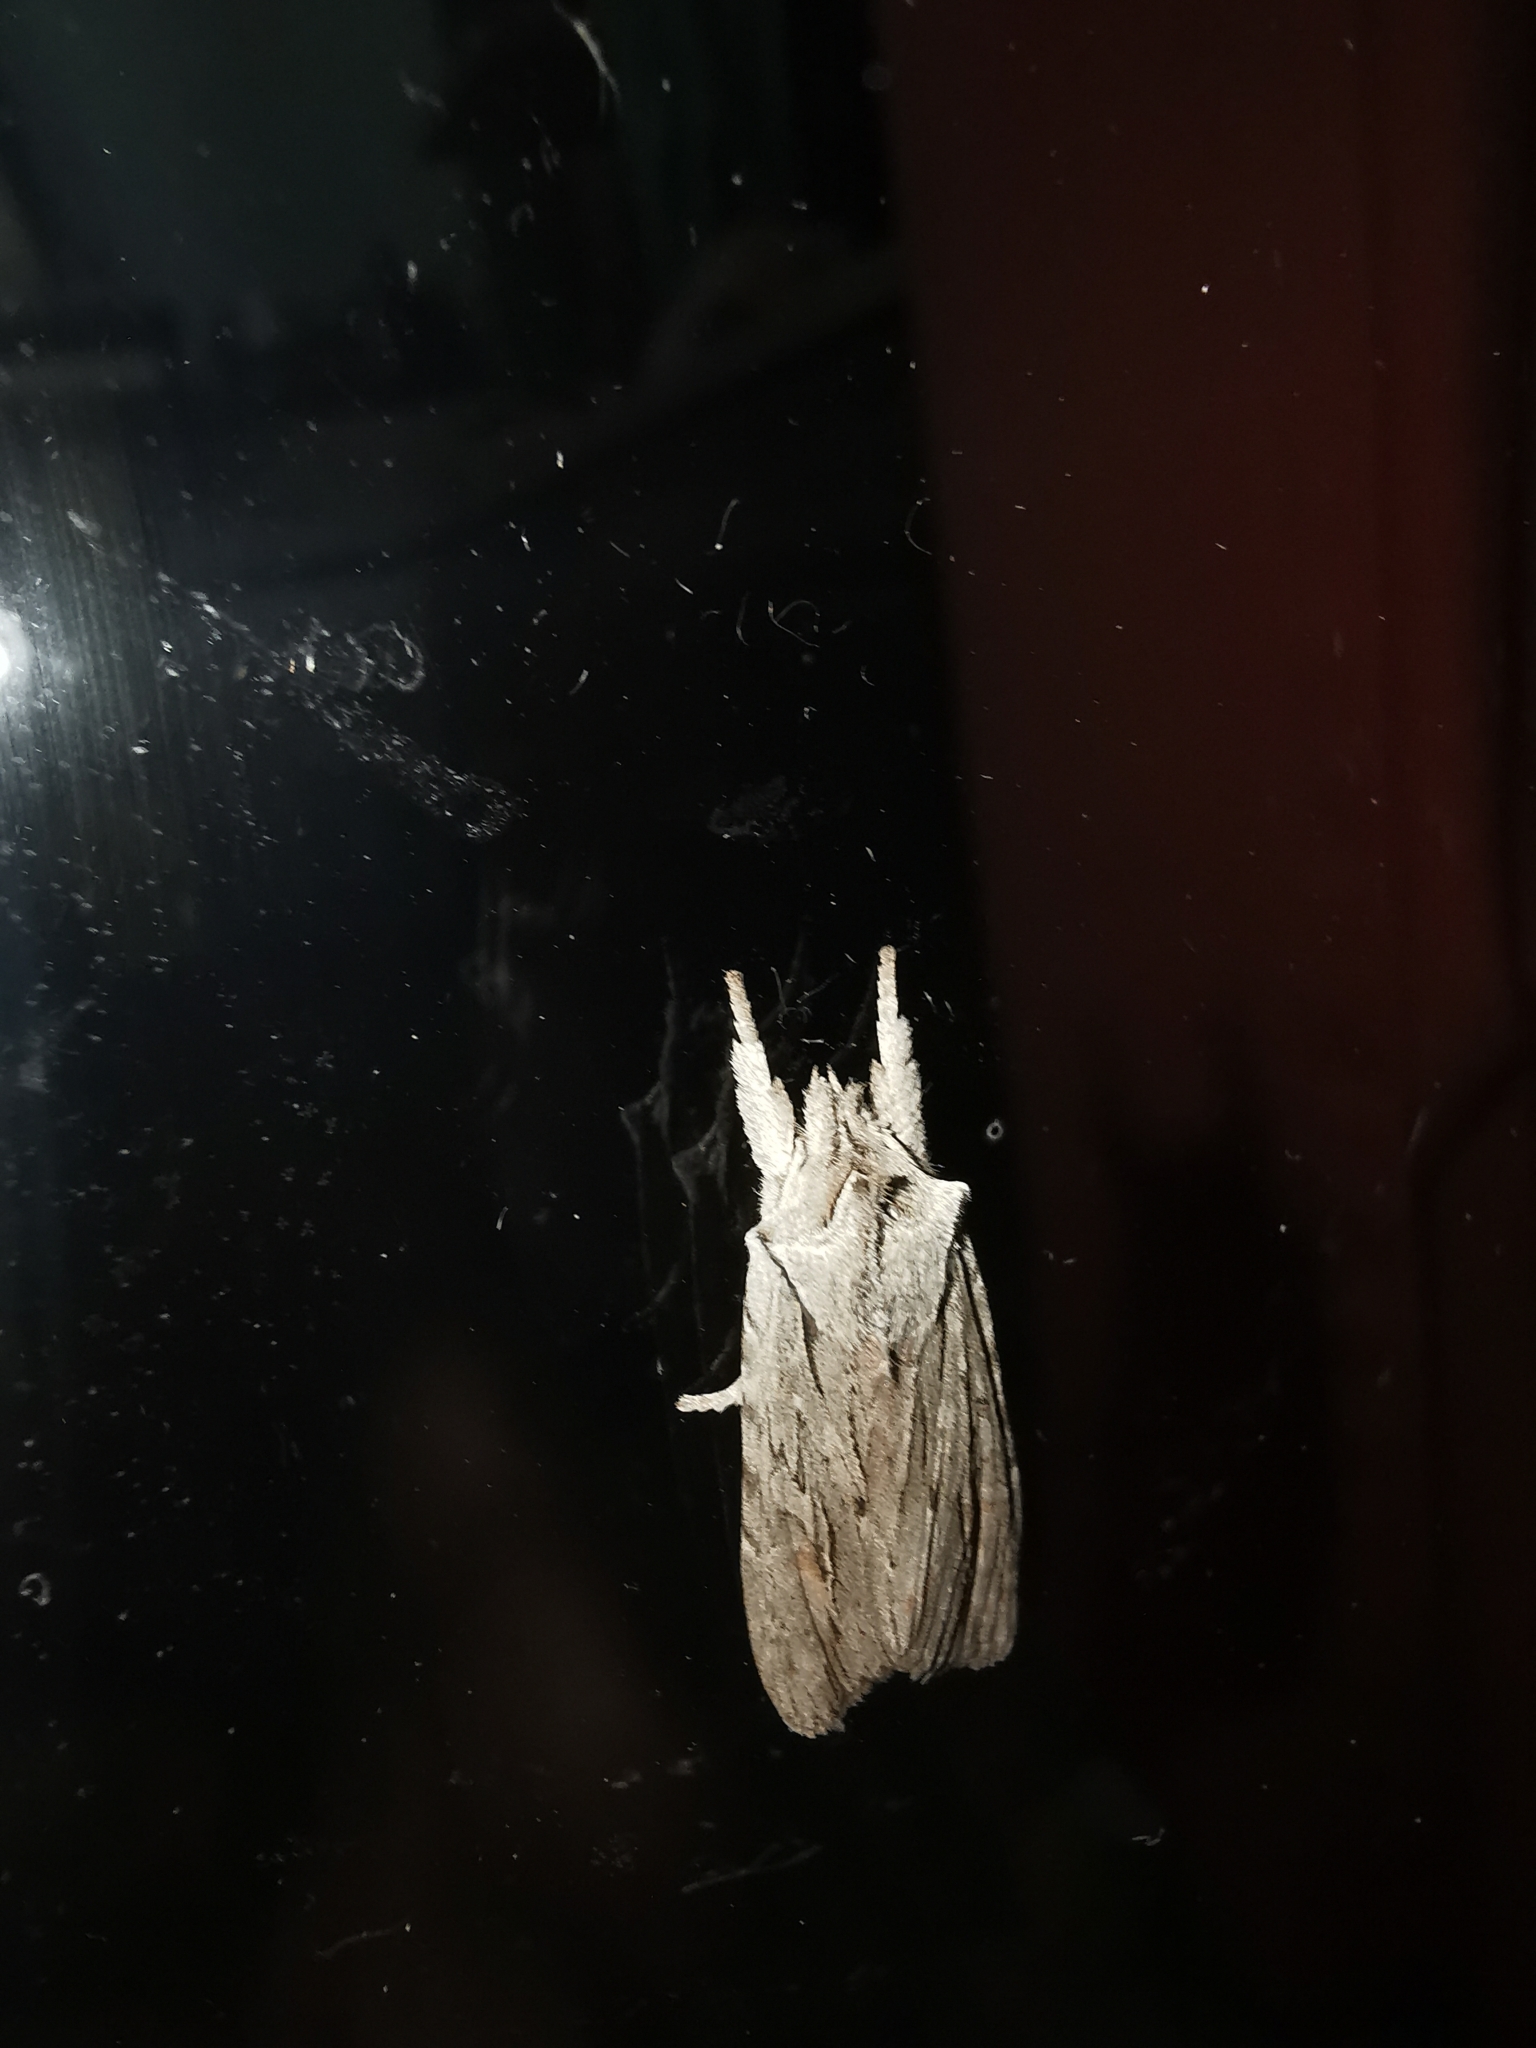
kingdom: Animalia
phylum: Arthropoda
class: Insecta
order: Lepidoptera
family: Noctuidae
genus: Lithophane
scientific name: Lithophane lapidea
